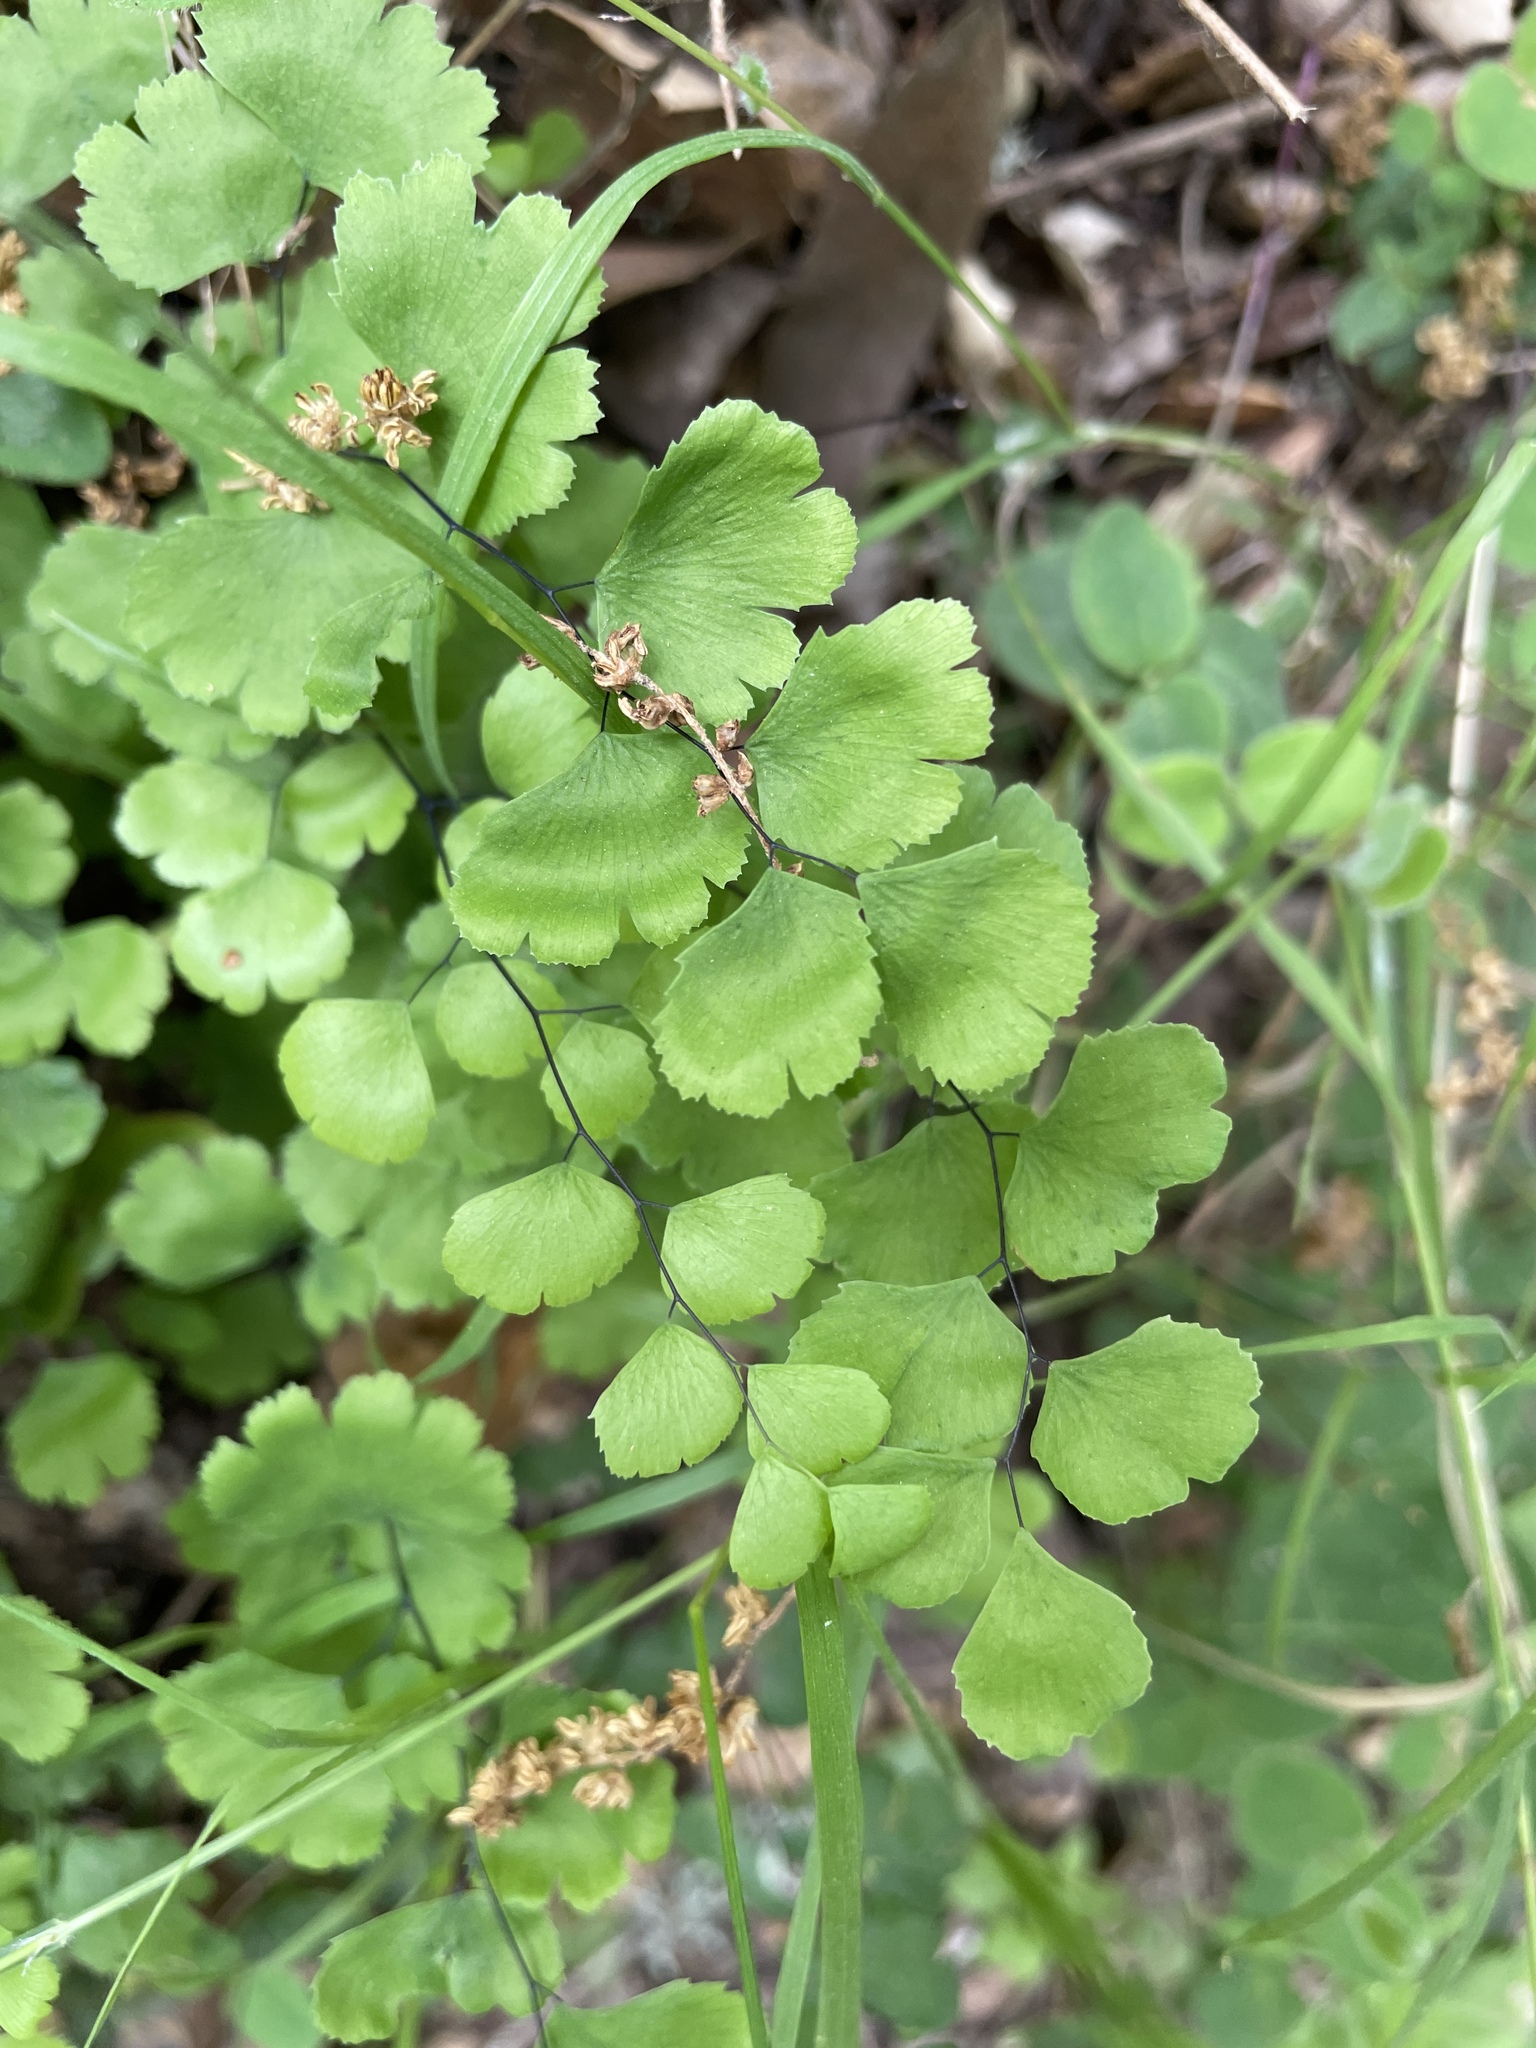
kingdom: Plantae
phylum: Tracheophyta
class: Polypodiopsida
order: Polypodiales
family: Pteridaceae
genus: Adiantum
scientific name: Adiantum jordanii
